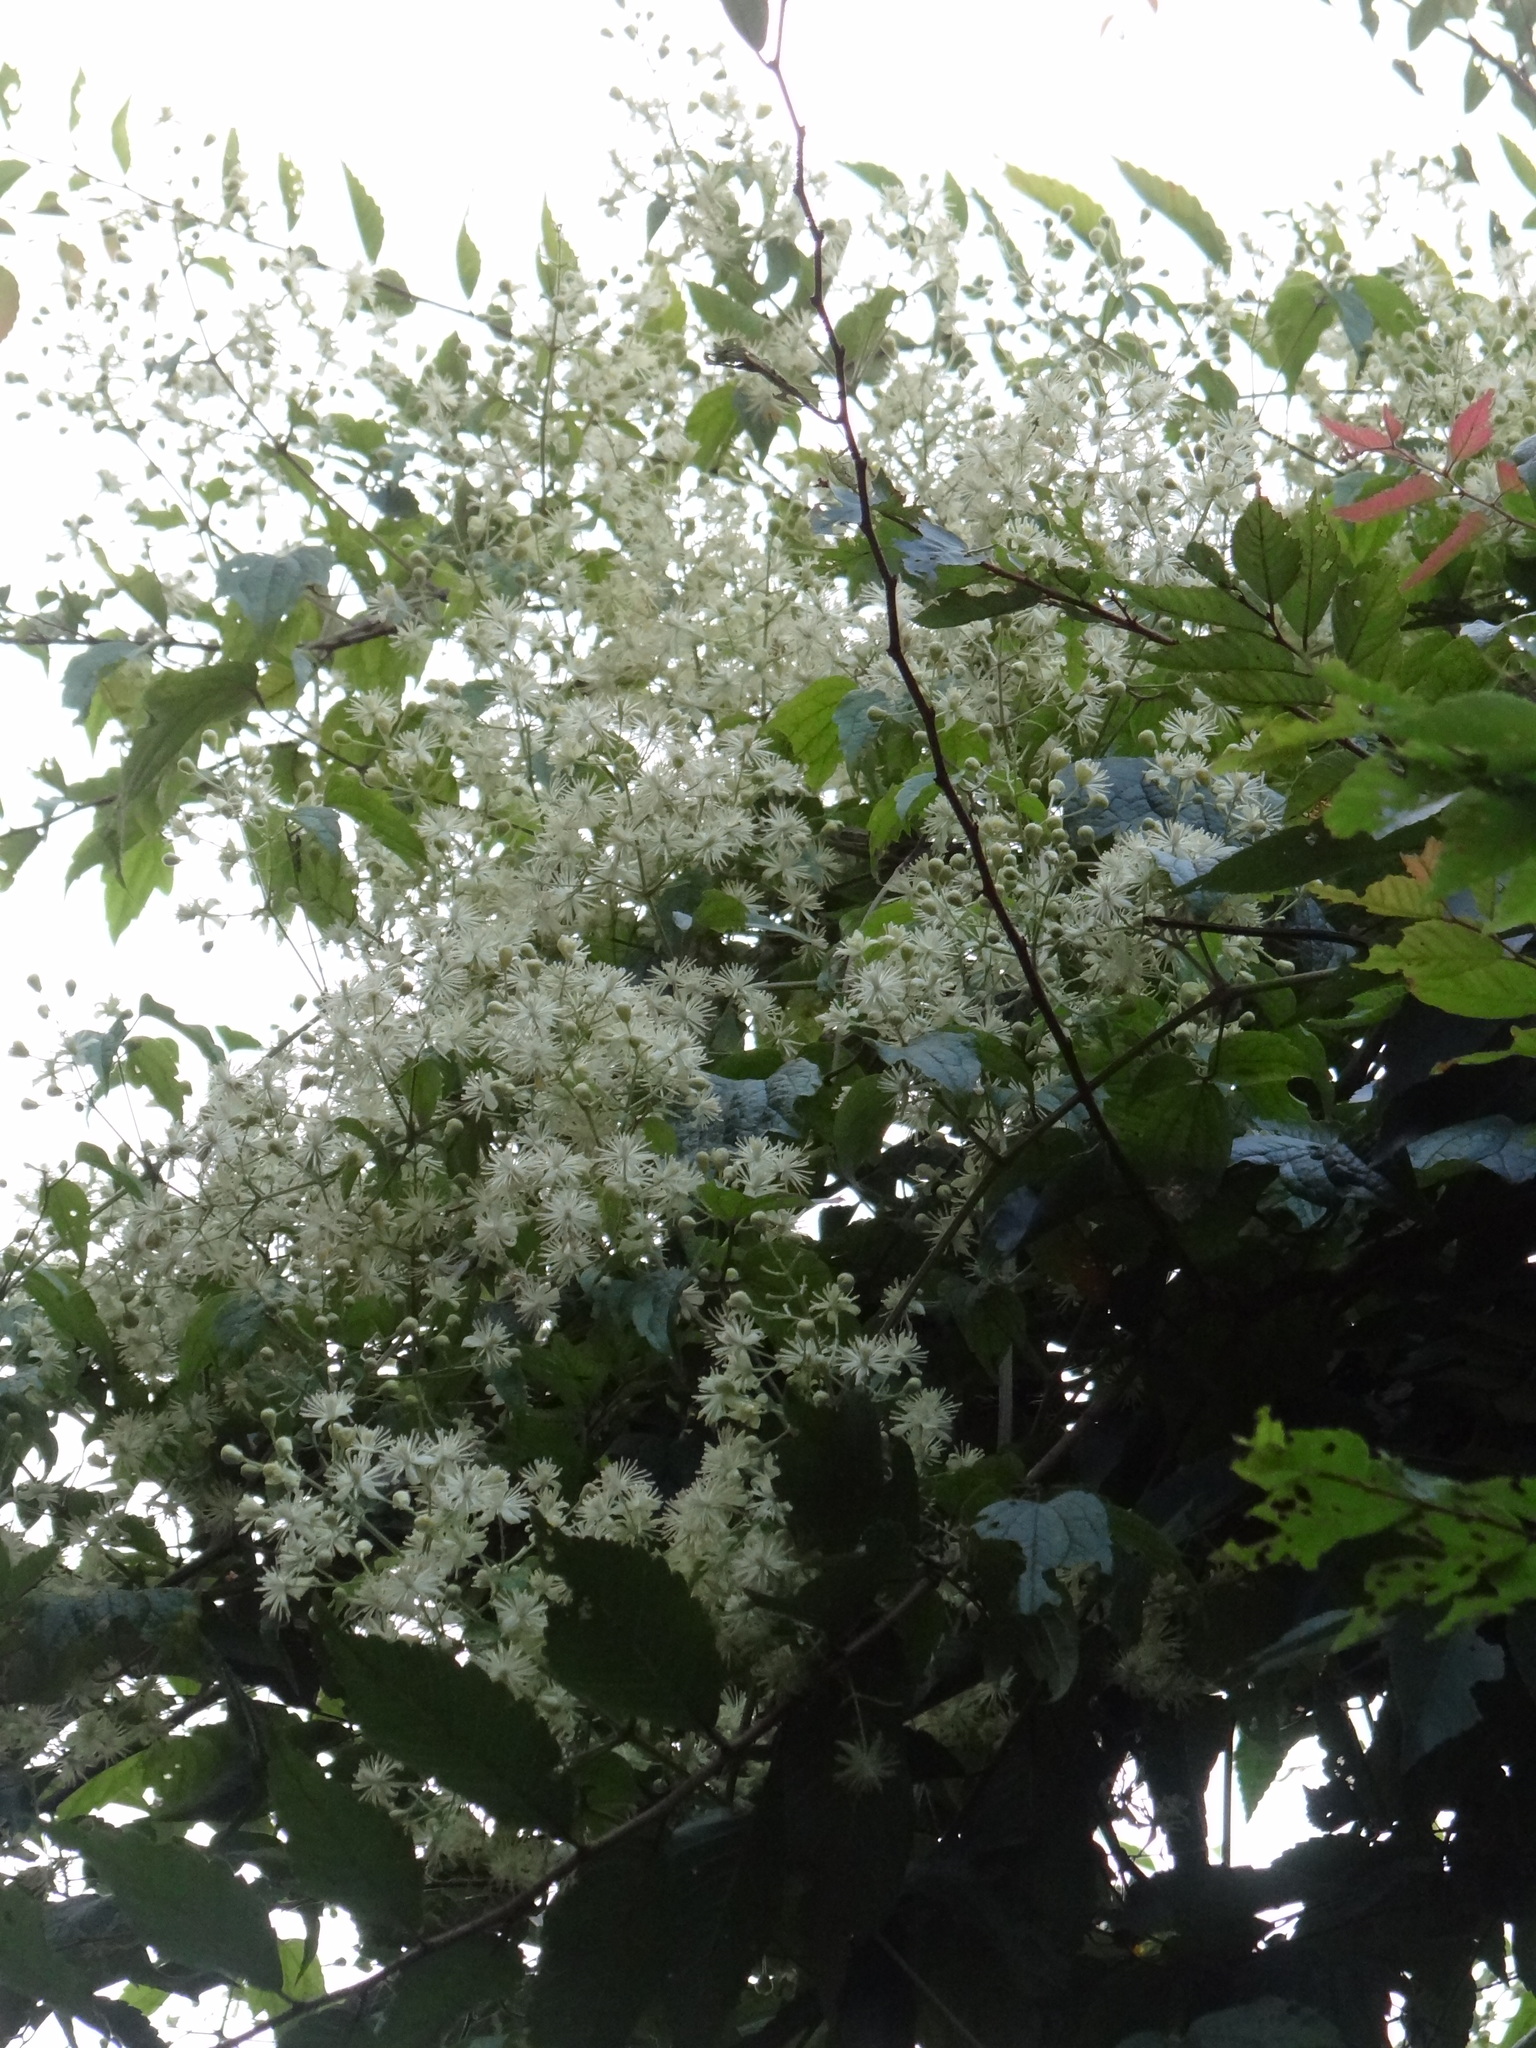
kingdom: Plantae
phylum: Tracheophyta
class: Magnoliopsida
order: Ranunculales
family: Ranunculaceae
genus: Clematis
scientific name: Clematis grata
